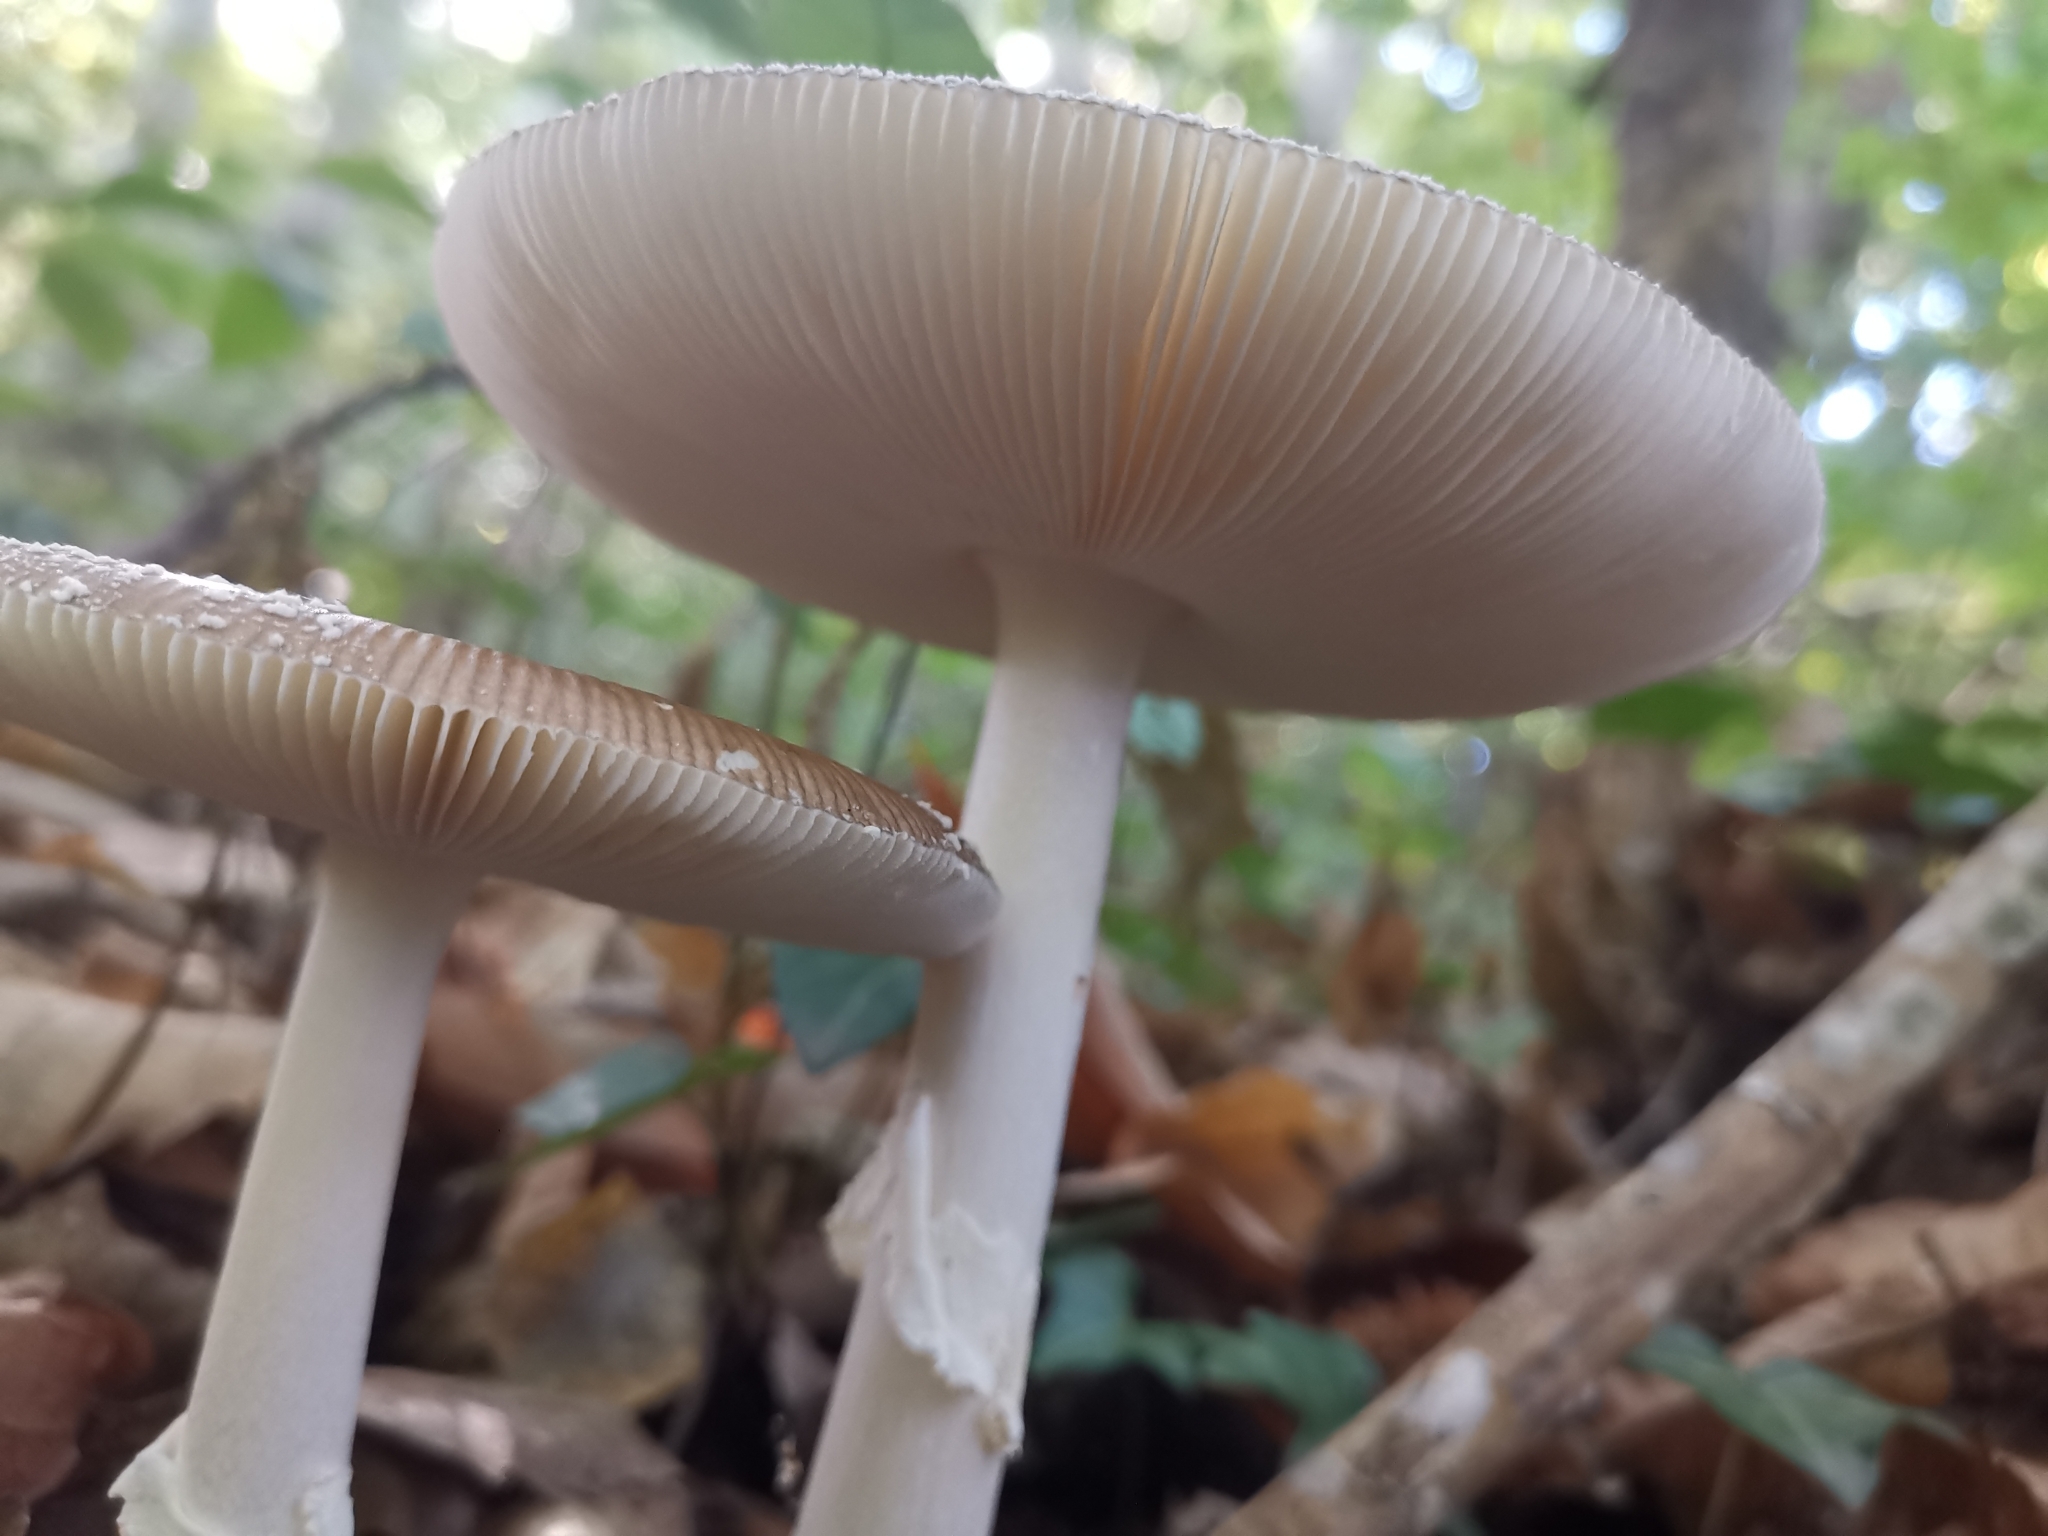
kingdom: Fungi
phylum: Basidiomycota
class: Agaricomycetes
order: Agaricales
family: Amanitaceae
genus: Amanita
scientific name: Amanita pantherina
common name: Panthercap
